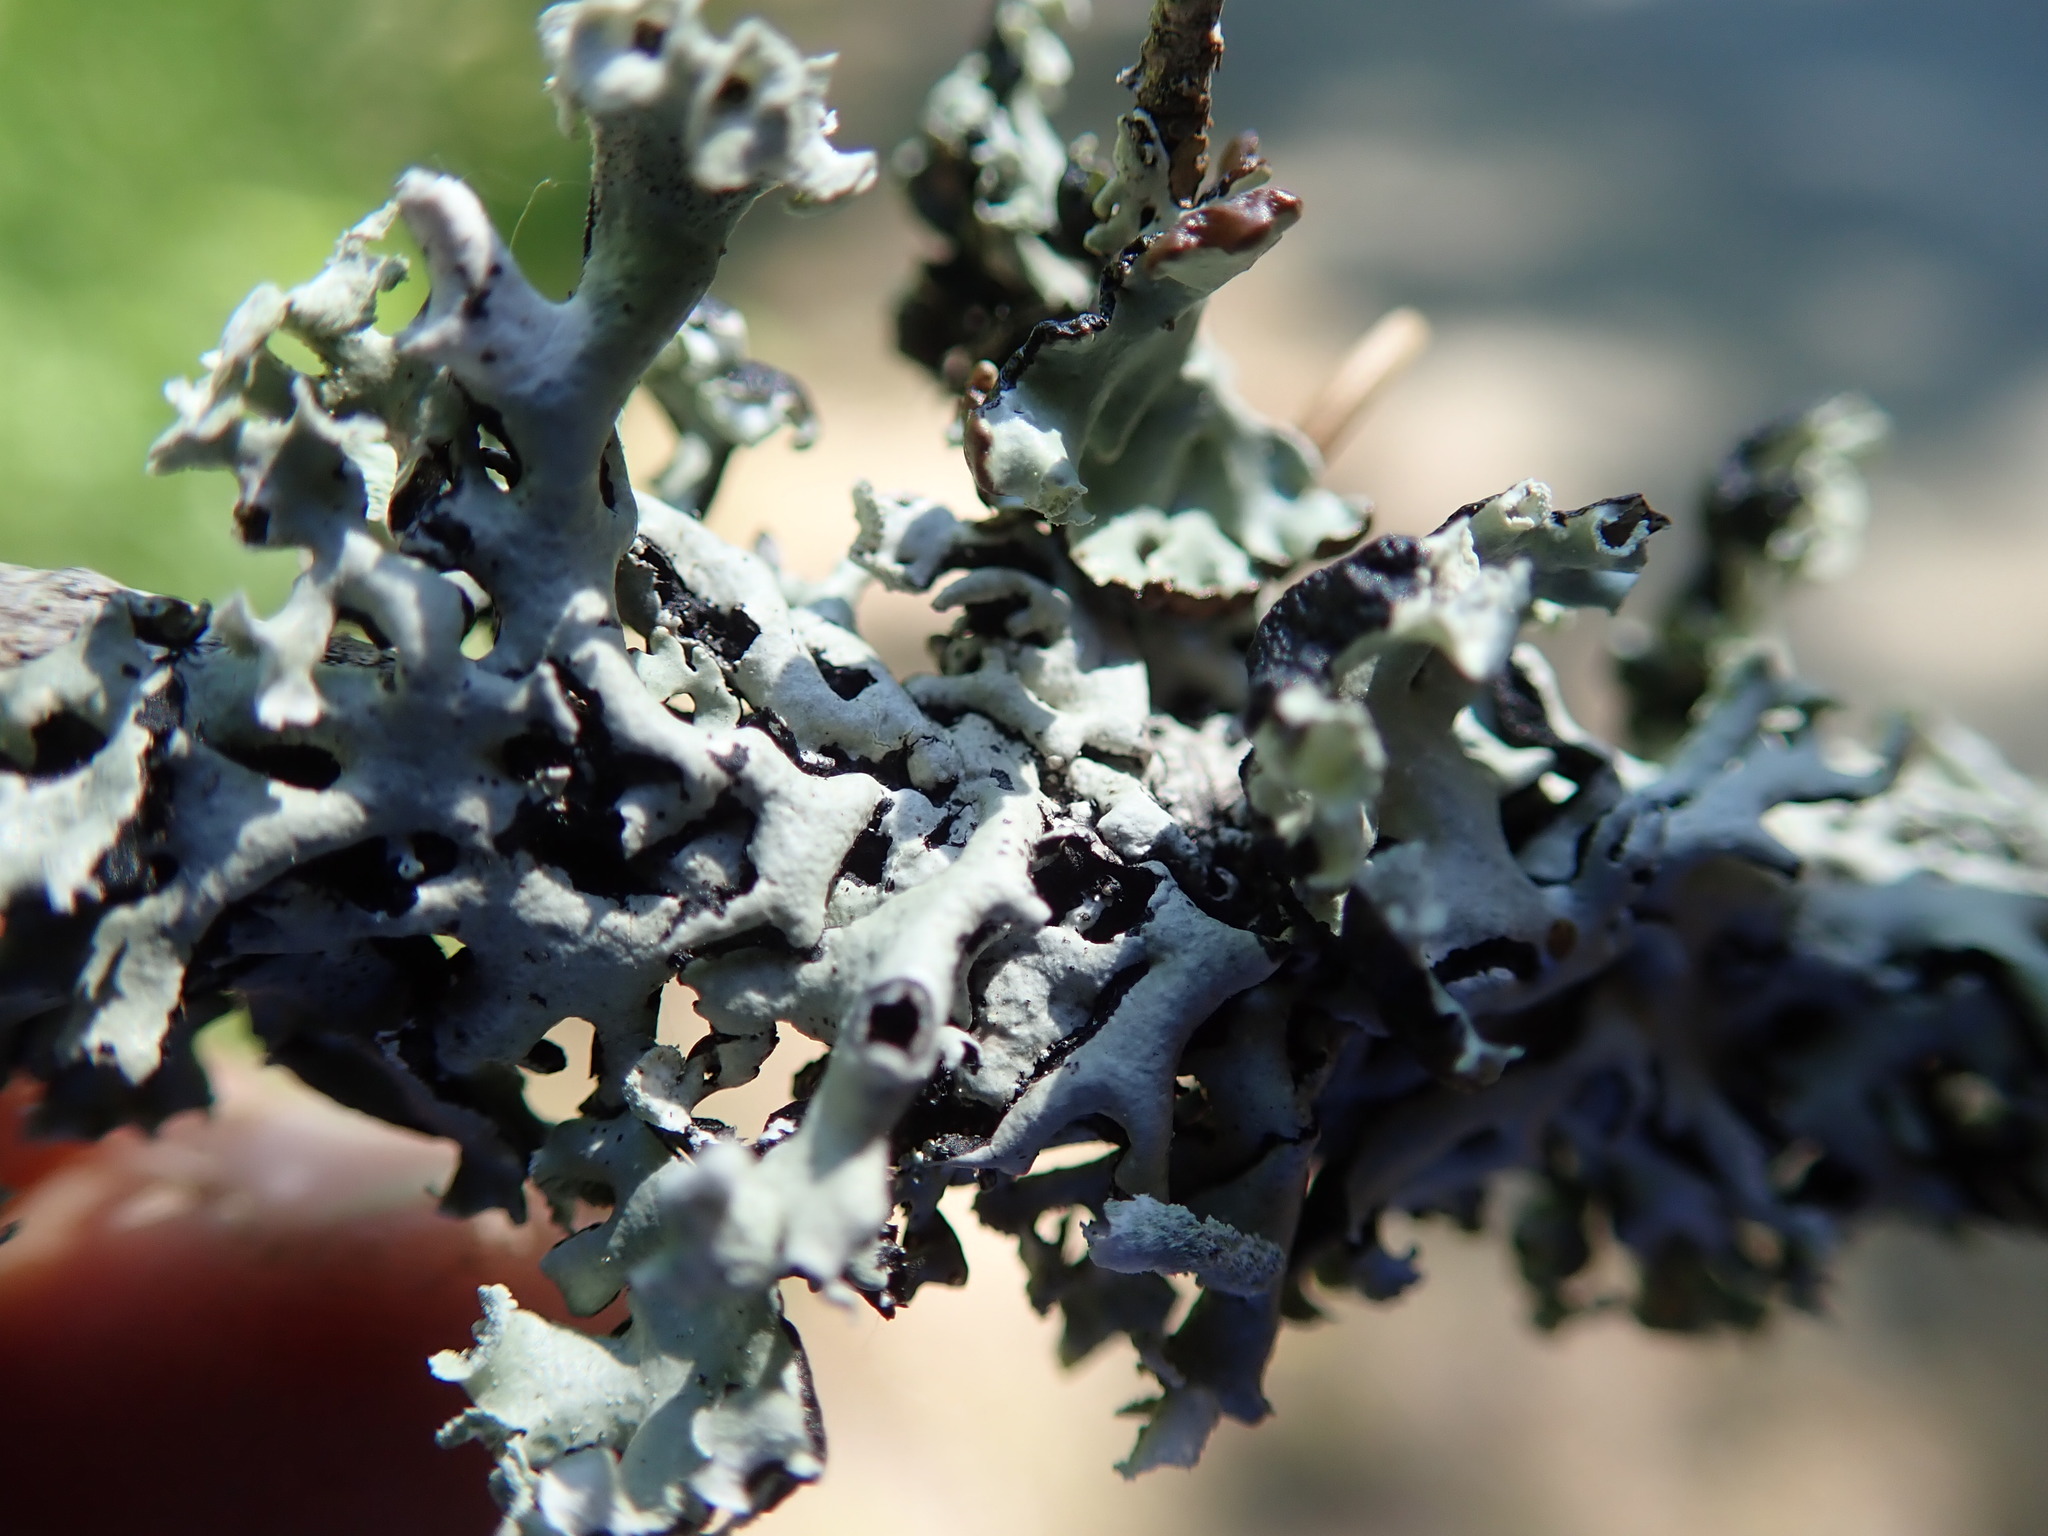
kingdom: Fungi
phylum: Ascomycota
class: Lecanoromycetes
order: Lecanorales
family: Parmeliaceae
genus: Hypogymnia
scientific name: Hypogymnia physodes
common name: Dark crottle
